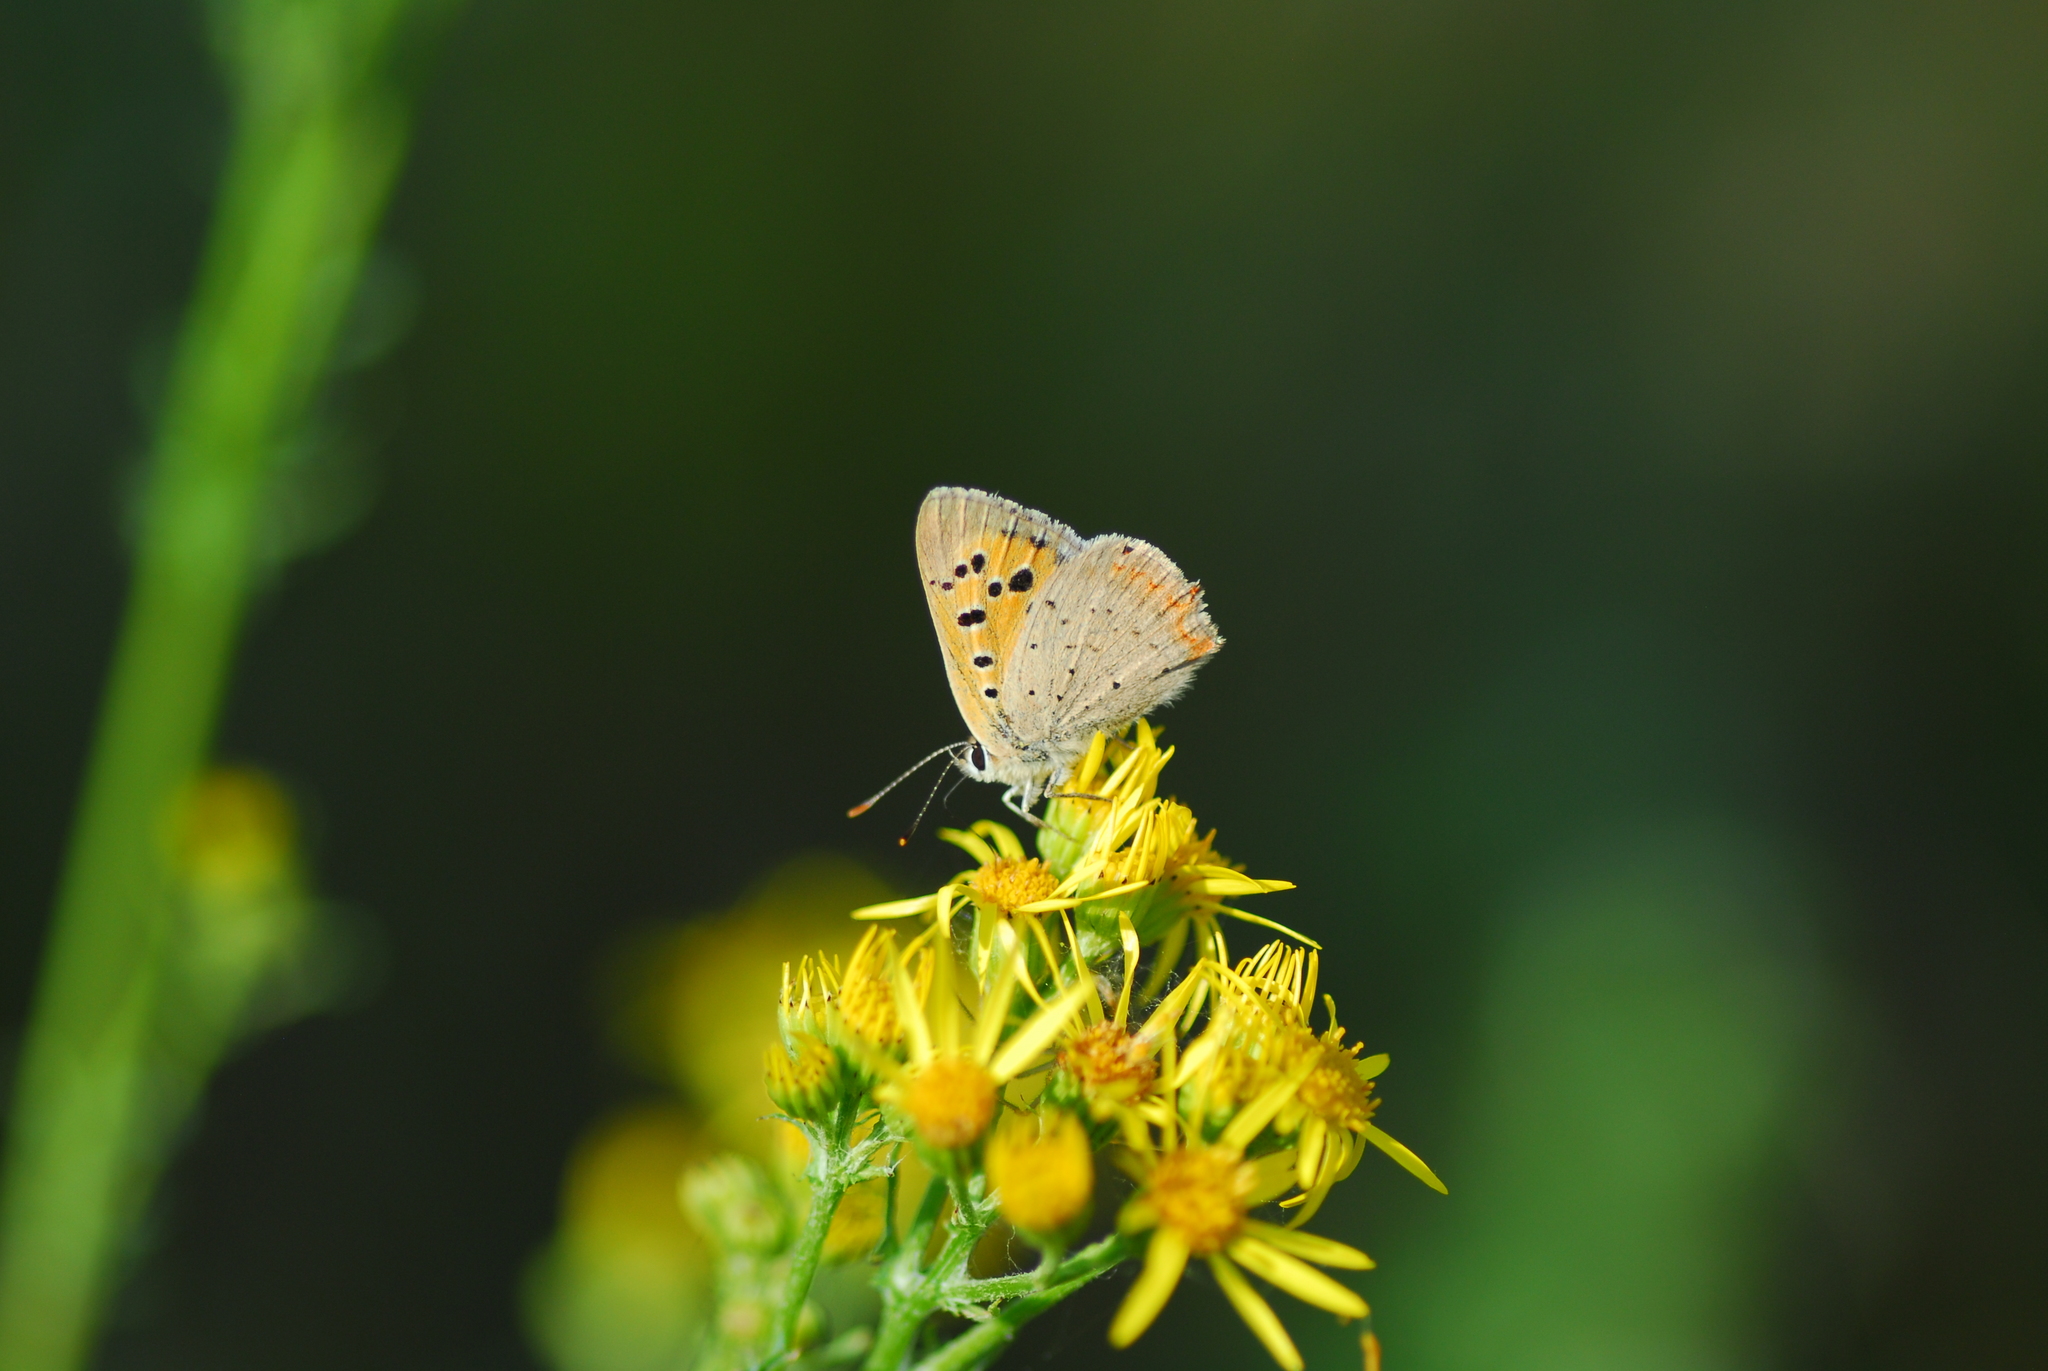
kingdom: Animalia
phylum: Arthropoda
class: Insecta
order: Lepidoptera
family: Lycaenidae
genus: Lycaena
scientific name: Lycaena phlaeas
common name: Small copper
